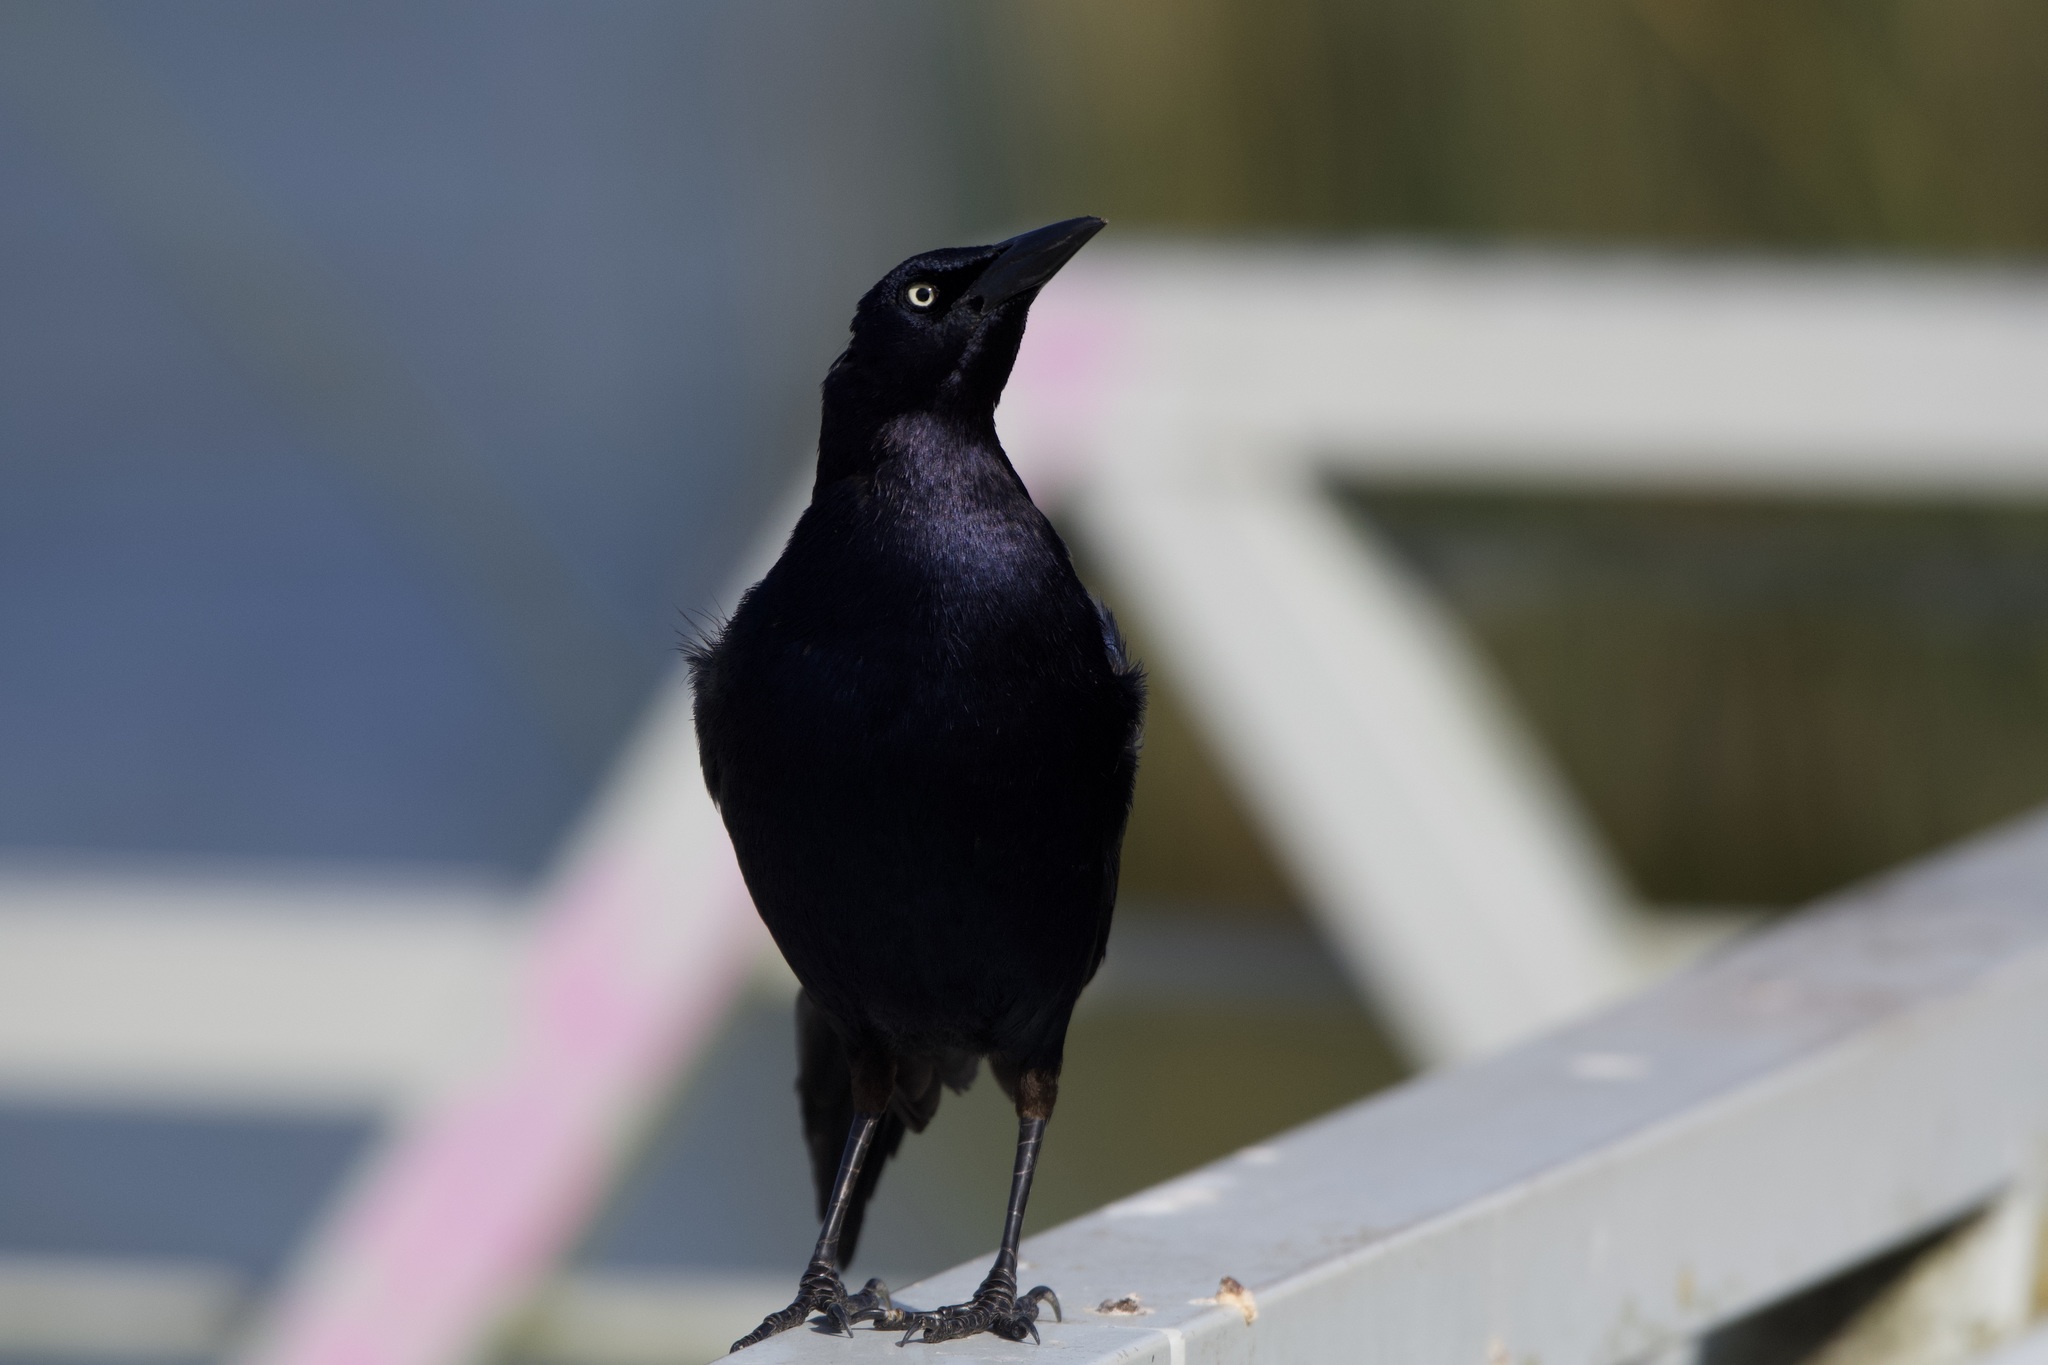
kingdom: Animalia
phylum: Chordata
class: Aves
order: Passeriformes
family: Icteridae
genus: Quiscalus
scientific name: Quiscalus mexicanus
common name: Great-tailed grackle
